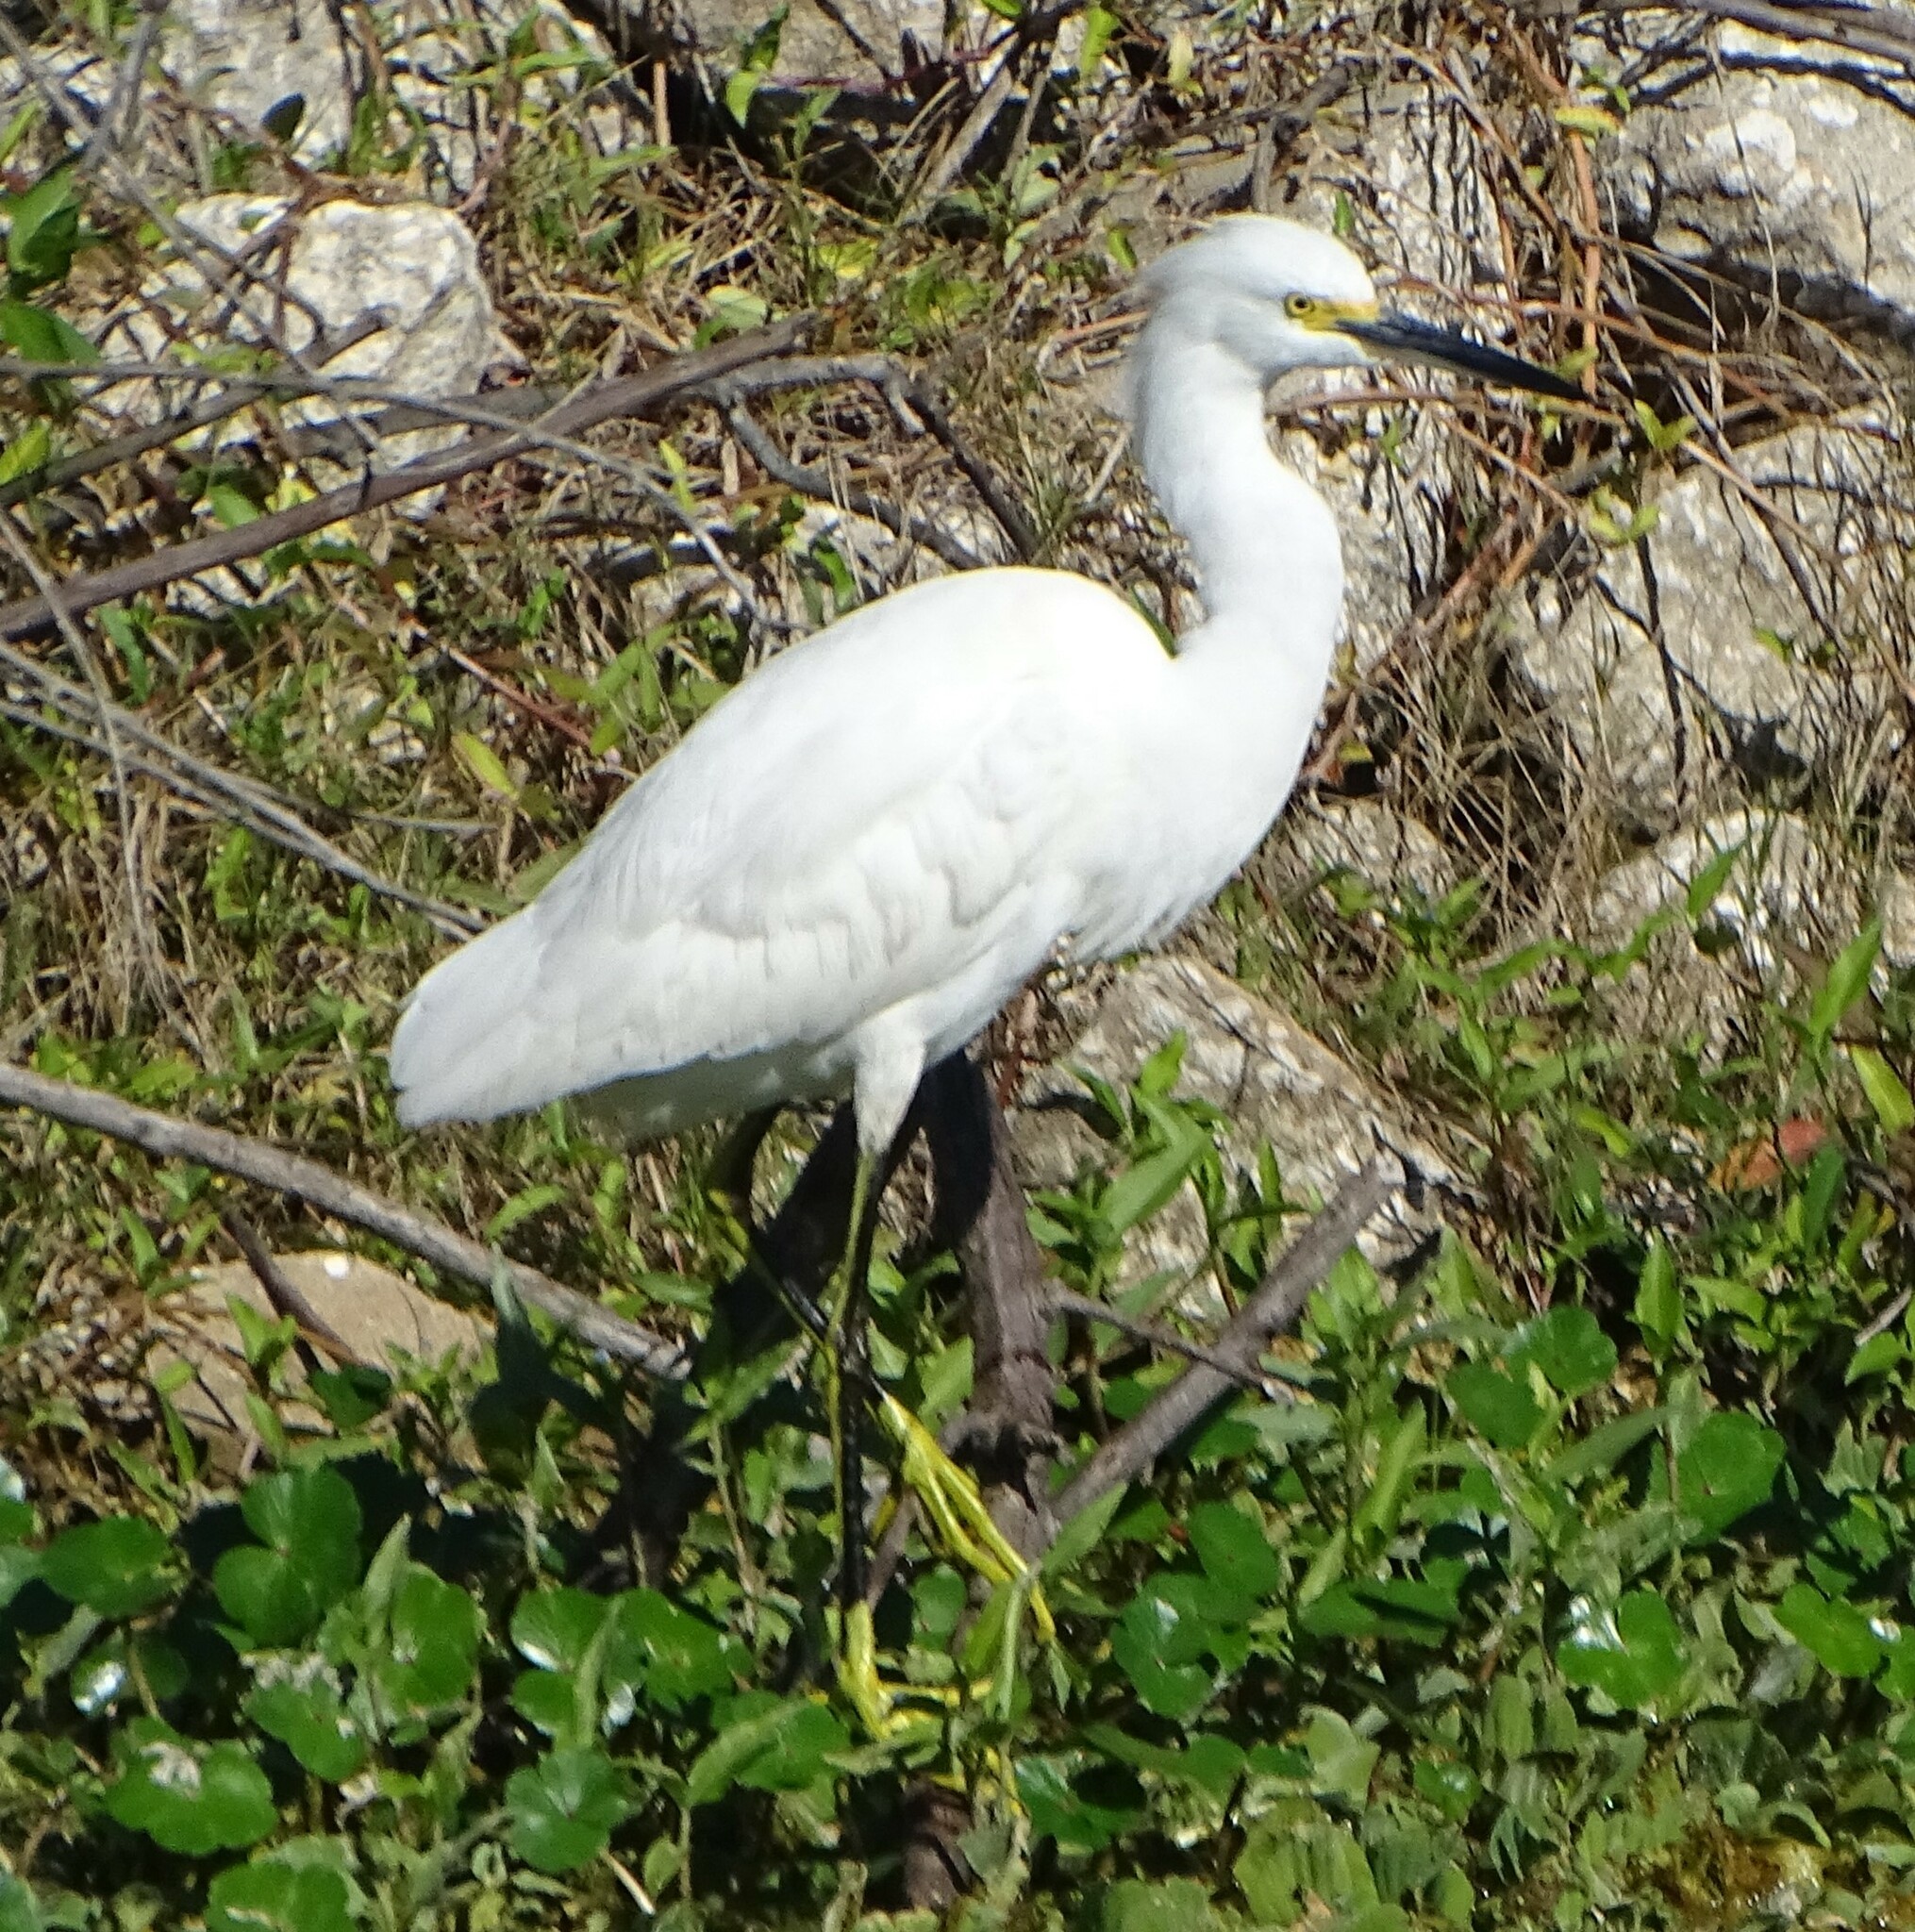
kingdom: Animalia
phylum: Chordata
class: Aves
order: Pelecaniformes
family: Ardeidae
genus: Egretta
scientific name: Egretta thula
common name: Snowy egret
